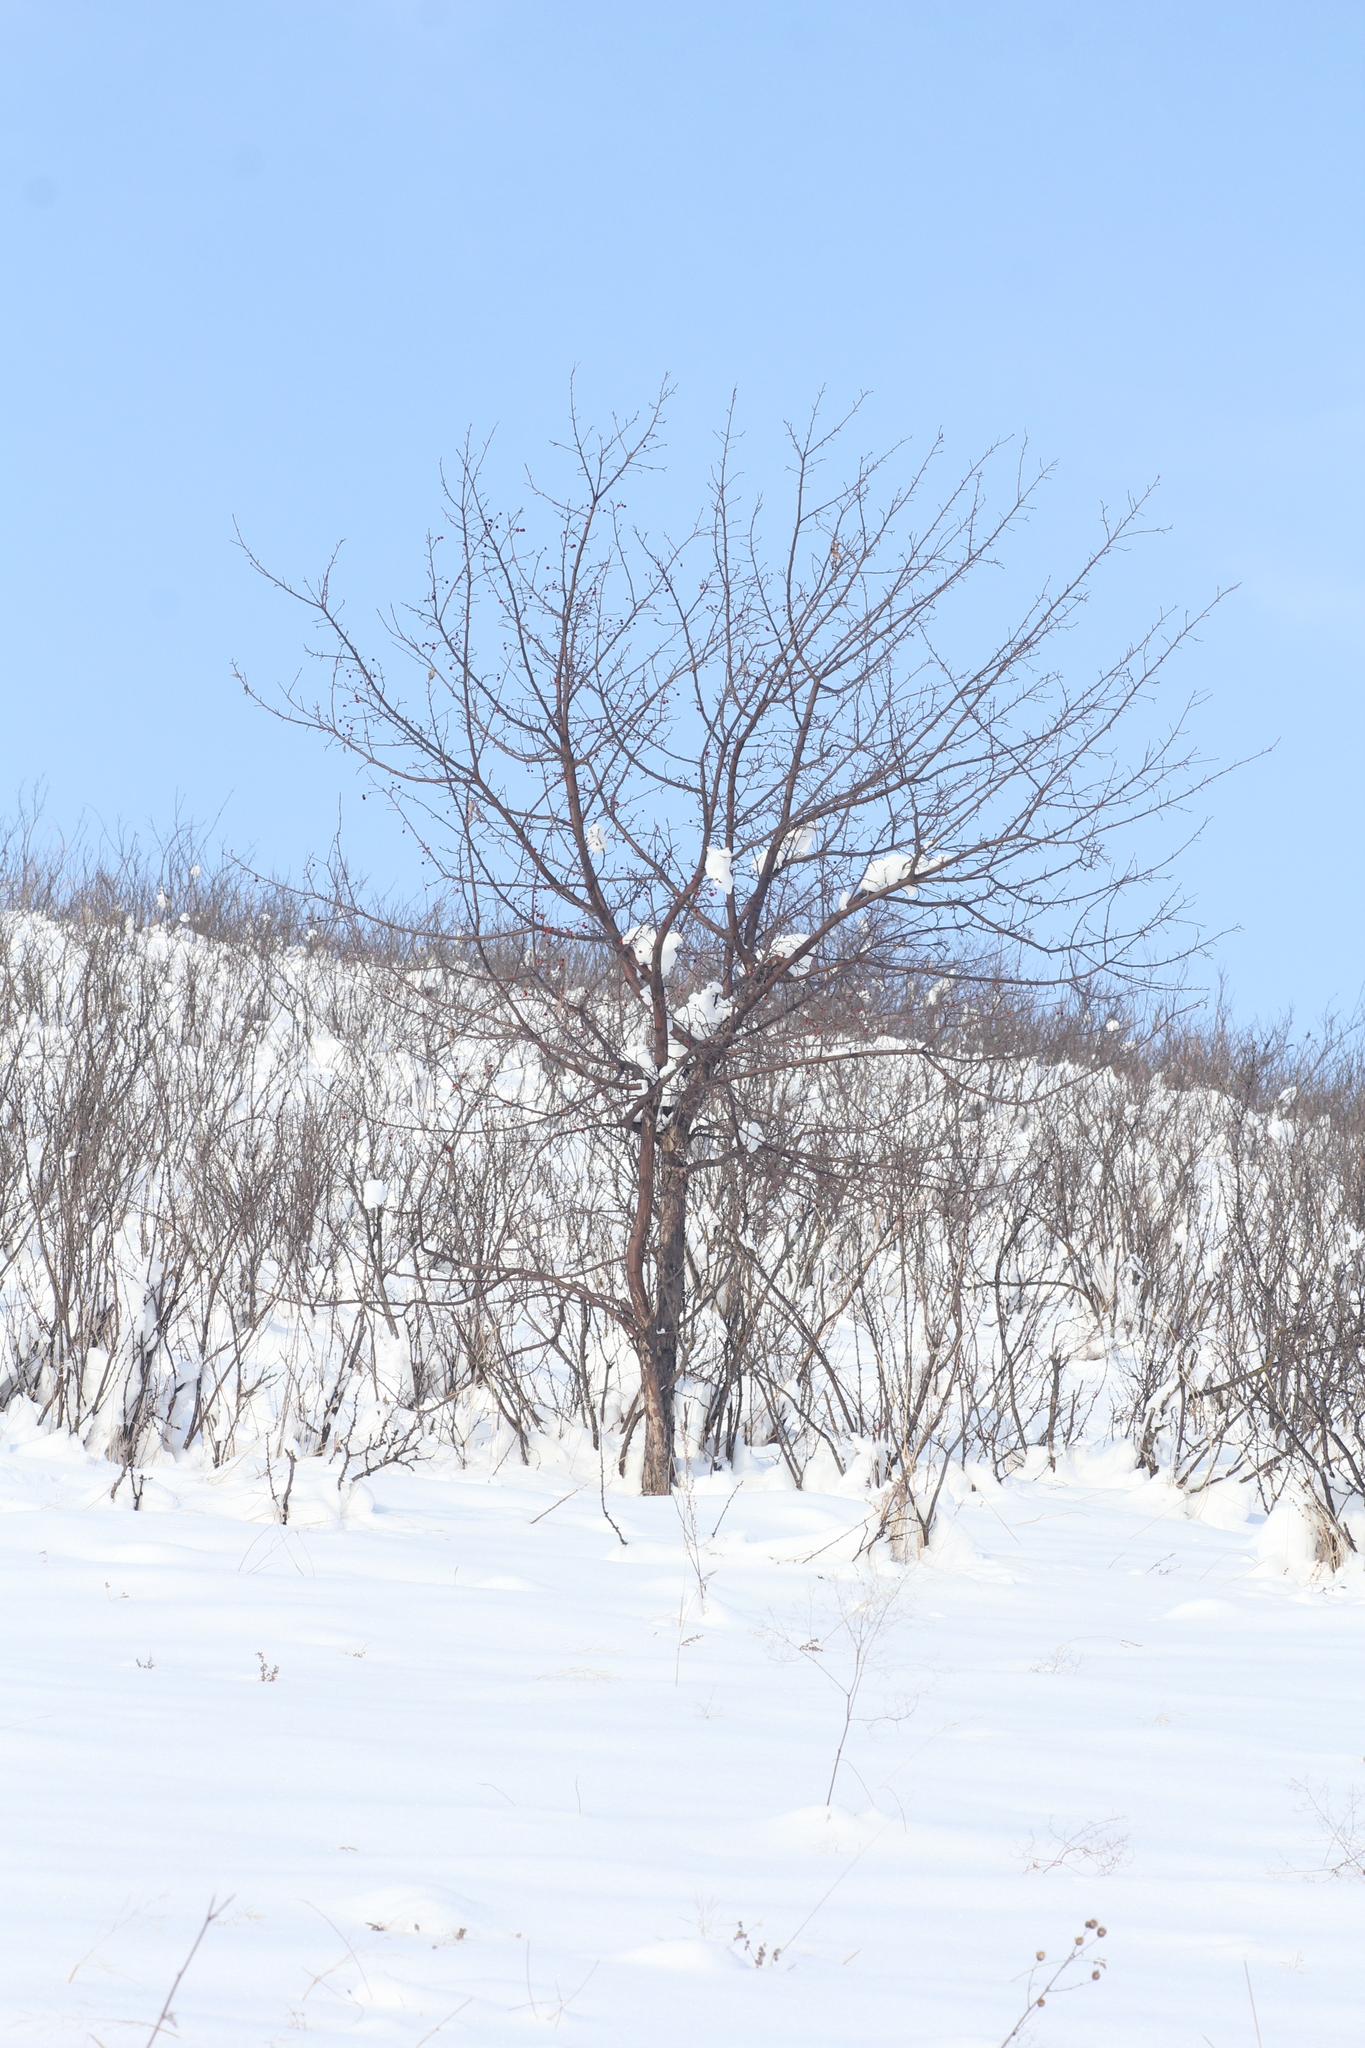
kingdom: Plantae
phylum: Tracheophyta
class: Magnoliopsida
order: Rosales
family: Rosaceae
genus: Malus
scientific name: Malus baccata
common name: Siberian crab
